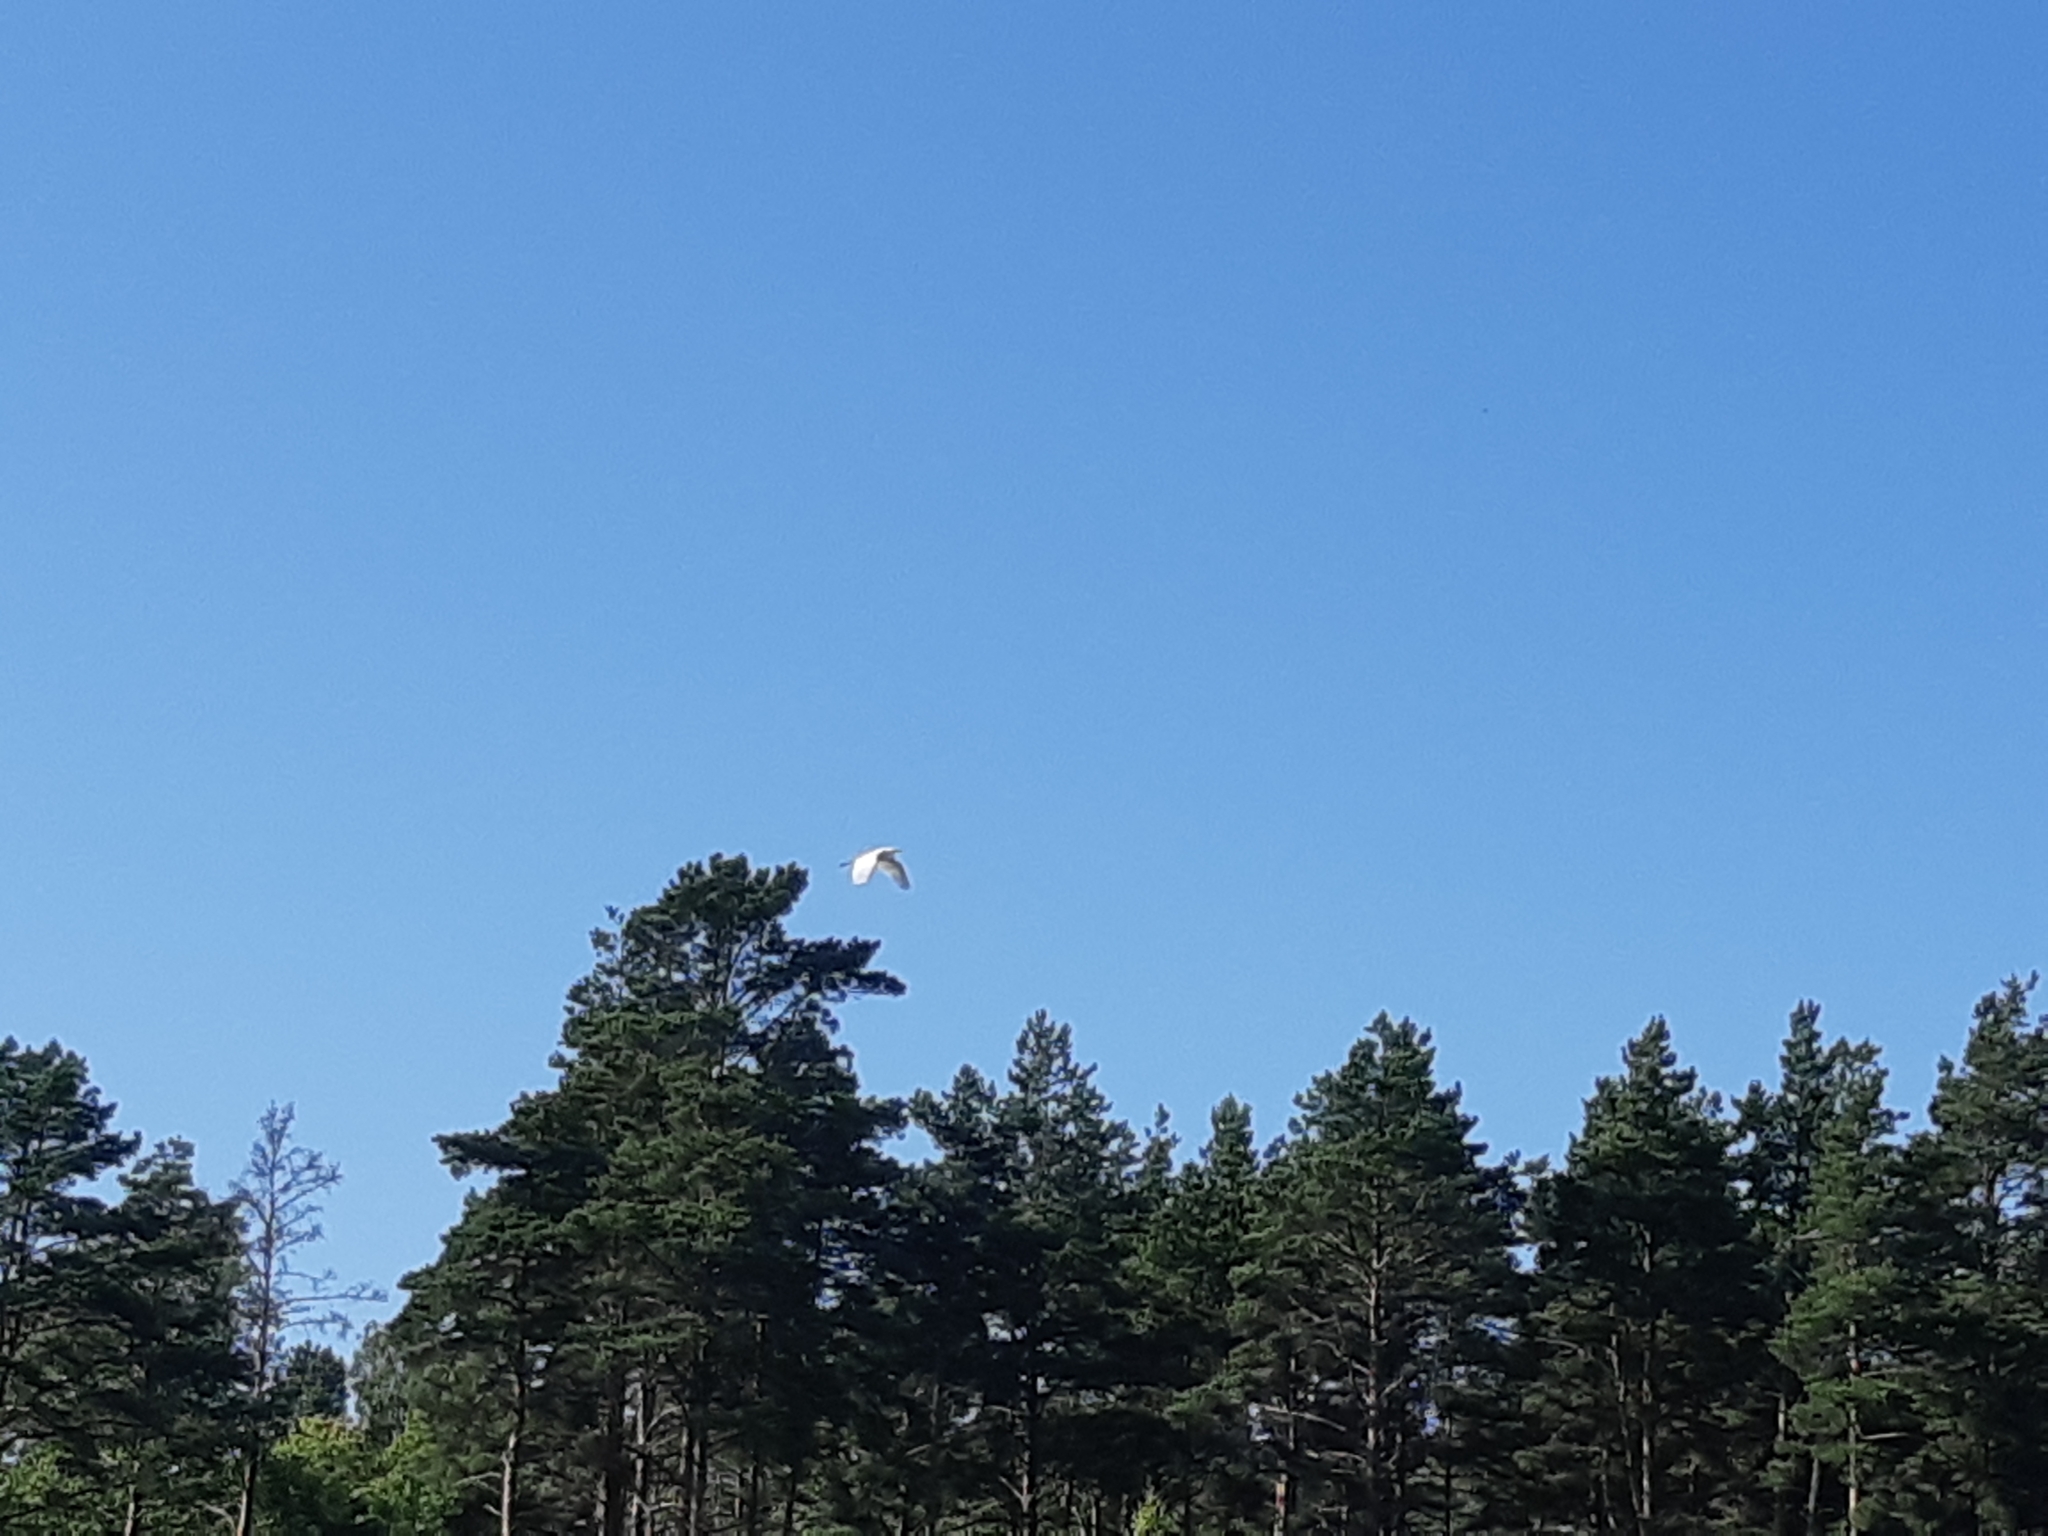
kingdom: Animalia
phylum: Chordata
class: Aves
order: Pelecaniformes
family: Ardeidae
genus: Ardea
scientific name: Ardea alba
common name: Great egret
